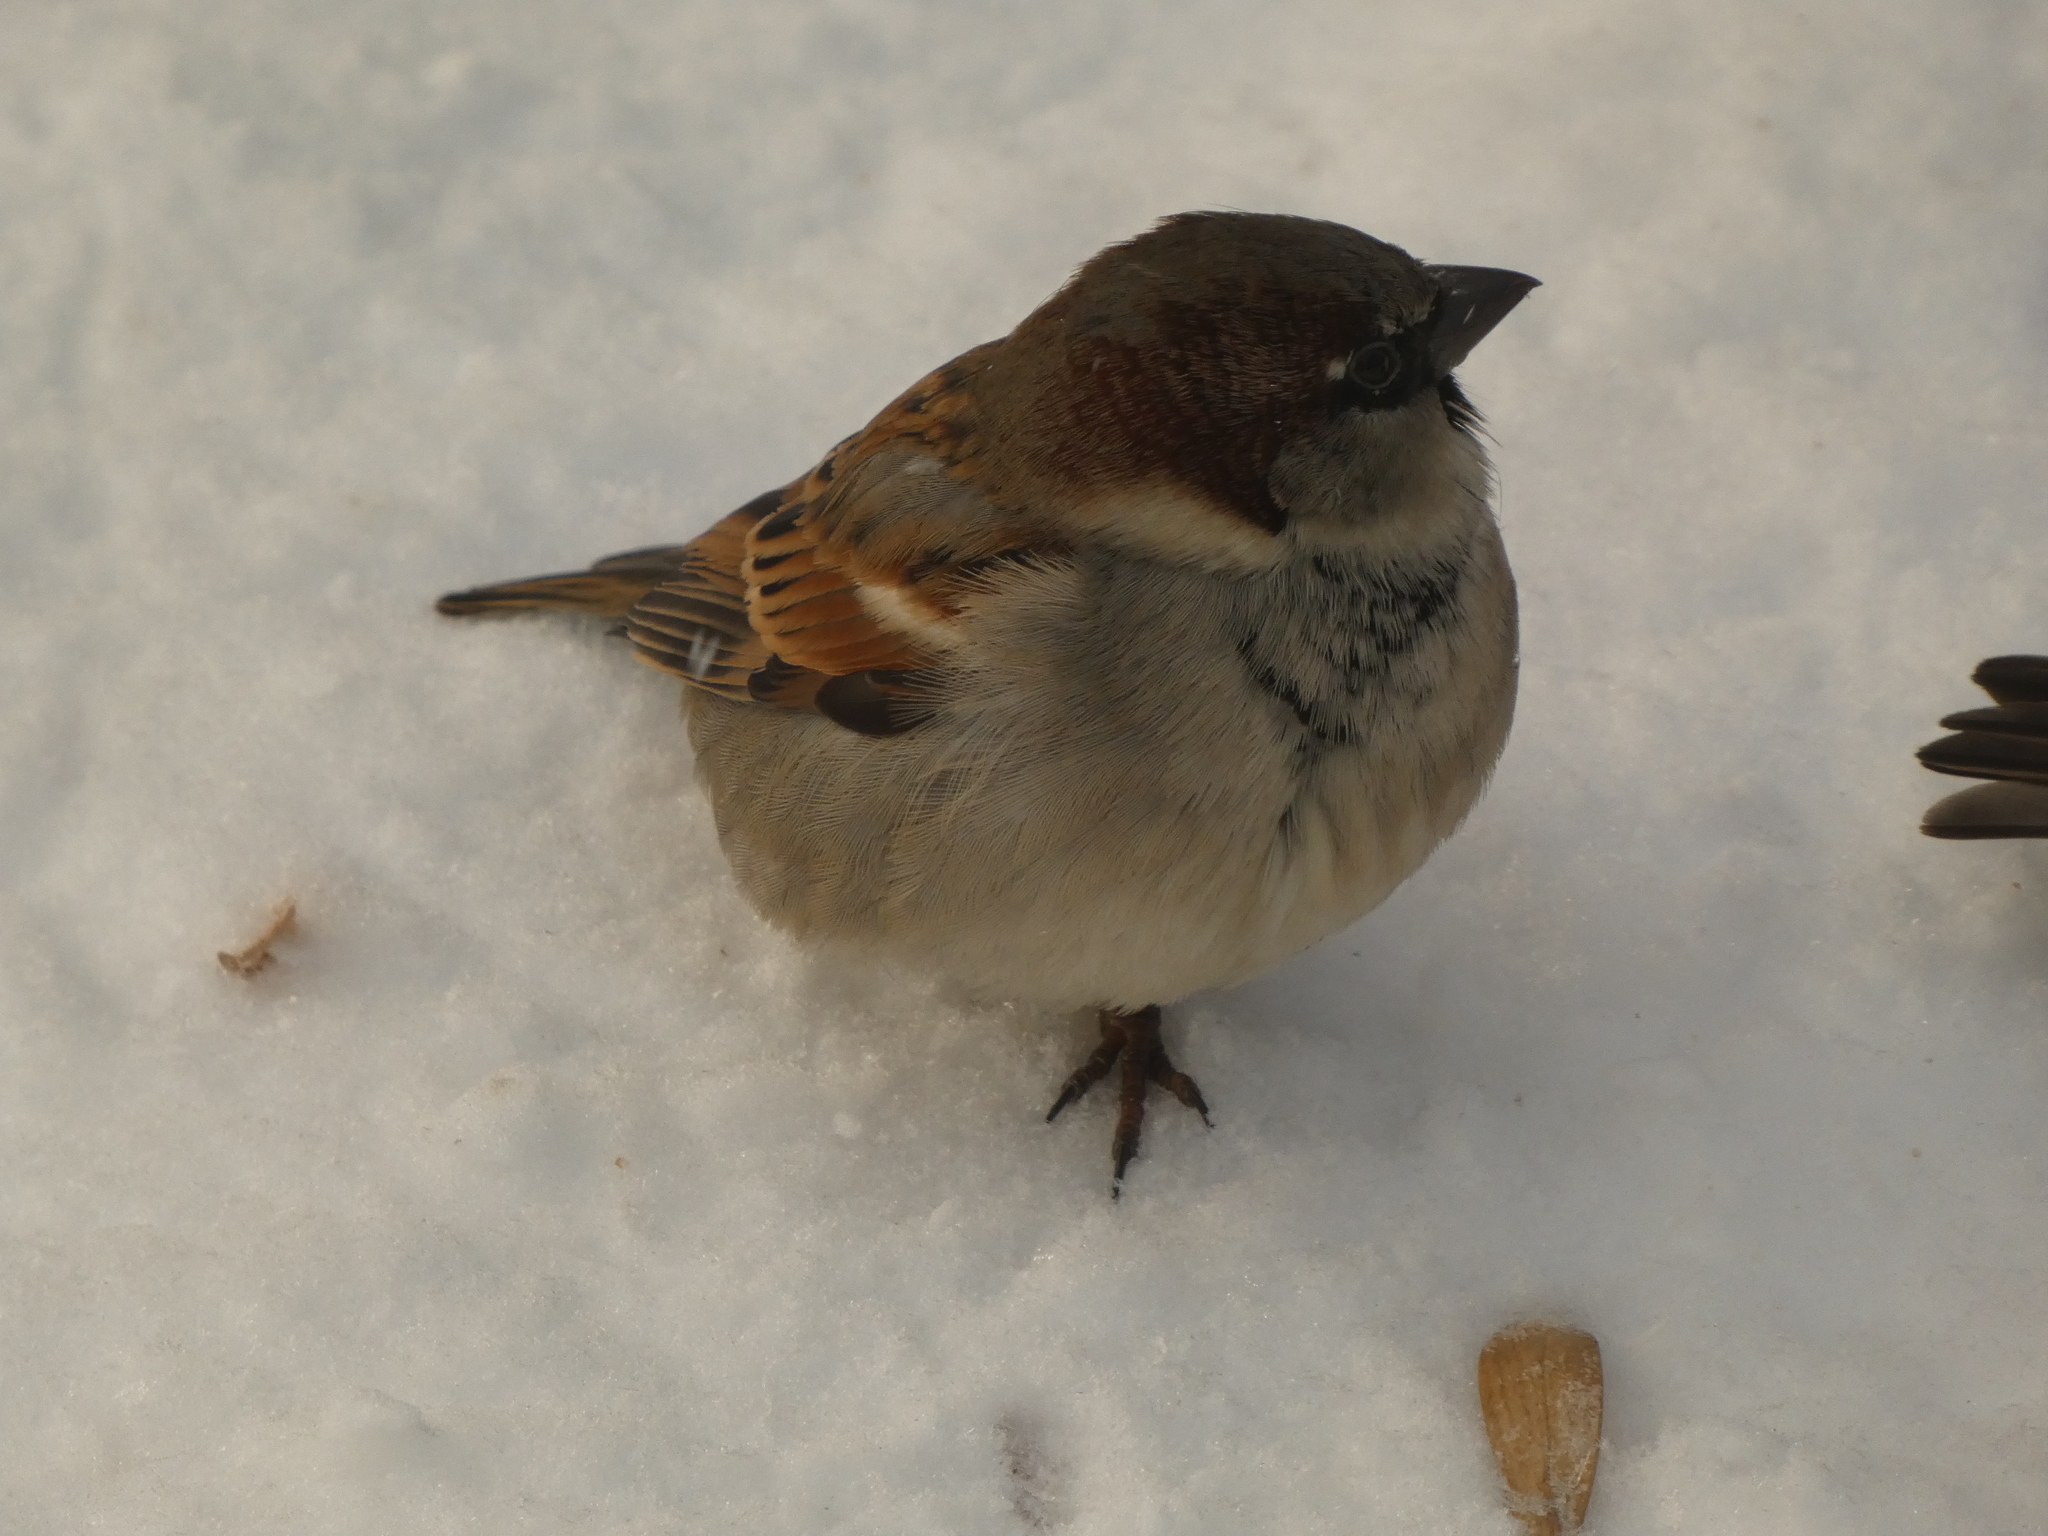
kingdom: Animalia
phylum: Chordata
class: Aves
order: Passeriformes
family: Passeridae
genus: Passer
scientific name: Passer domesticus
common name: House sparrow
